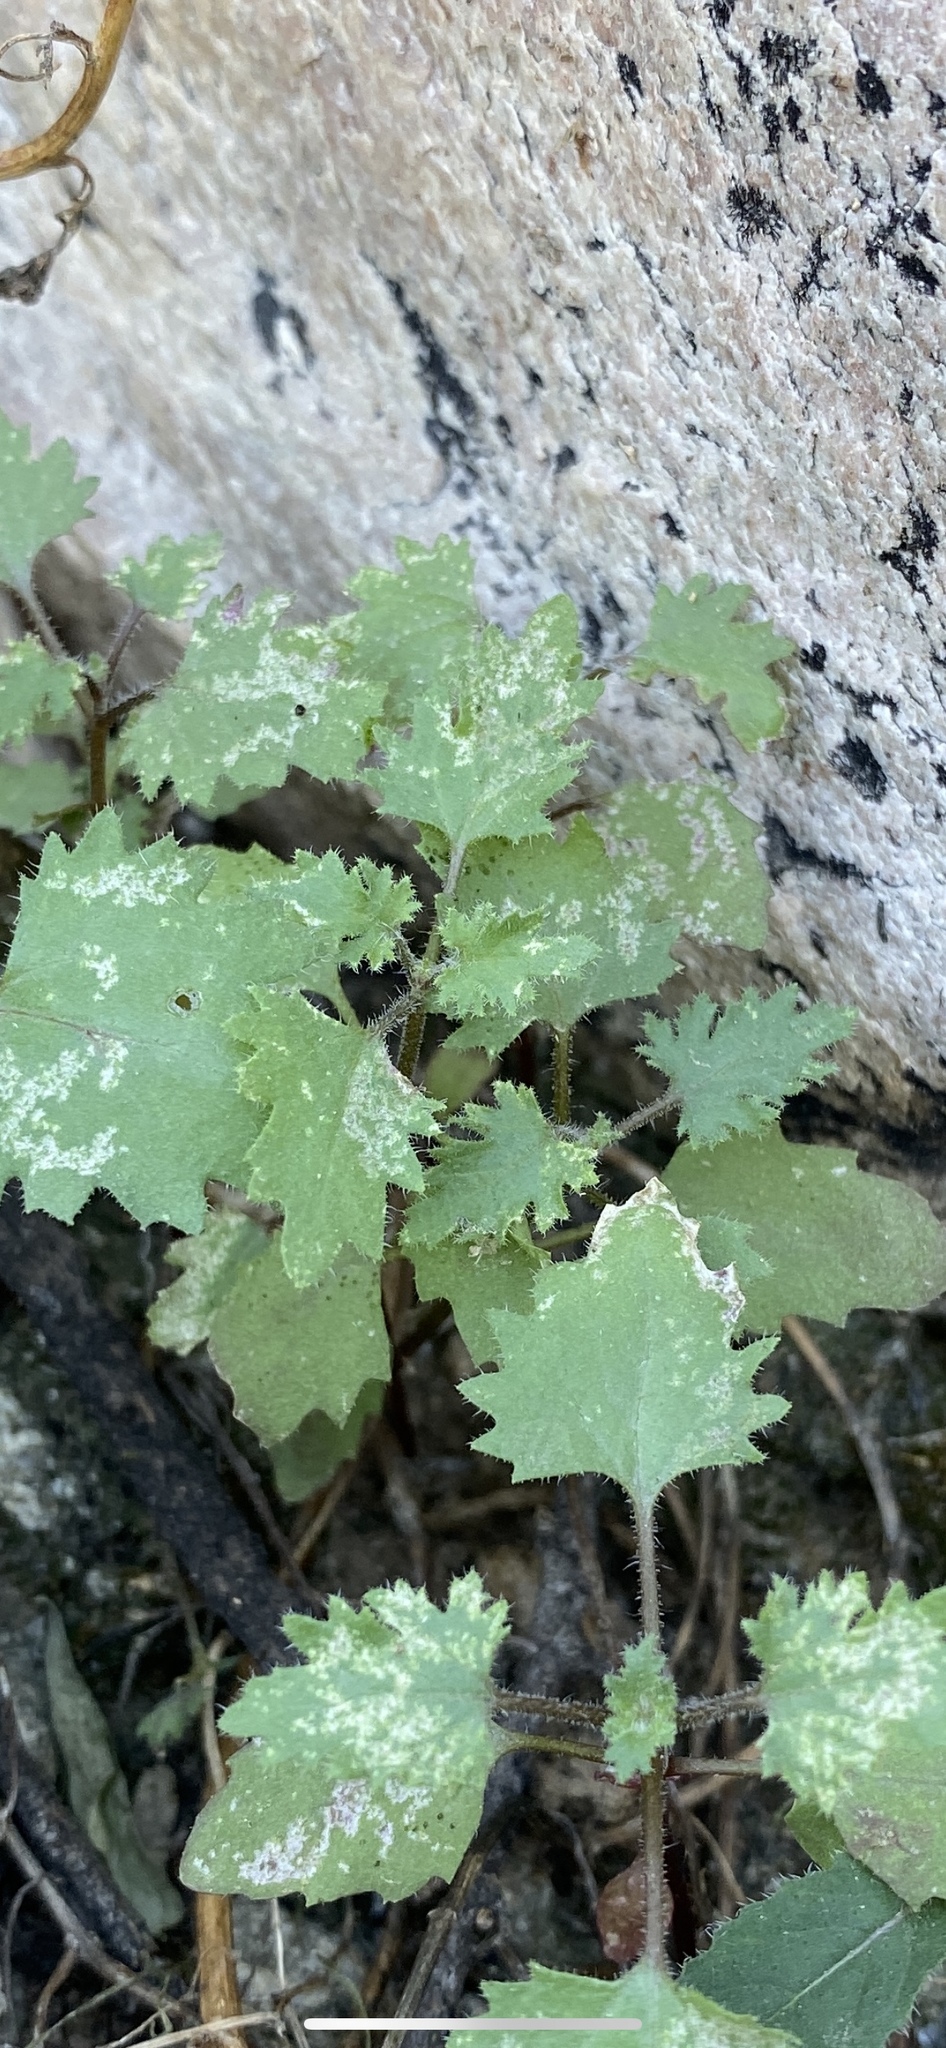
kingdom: Plantae
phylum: Tracheophyta
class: Magnoliopsida
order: Asterales
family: Asteraceae
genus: Laphamia
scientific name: Laphamia emoryi
